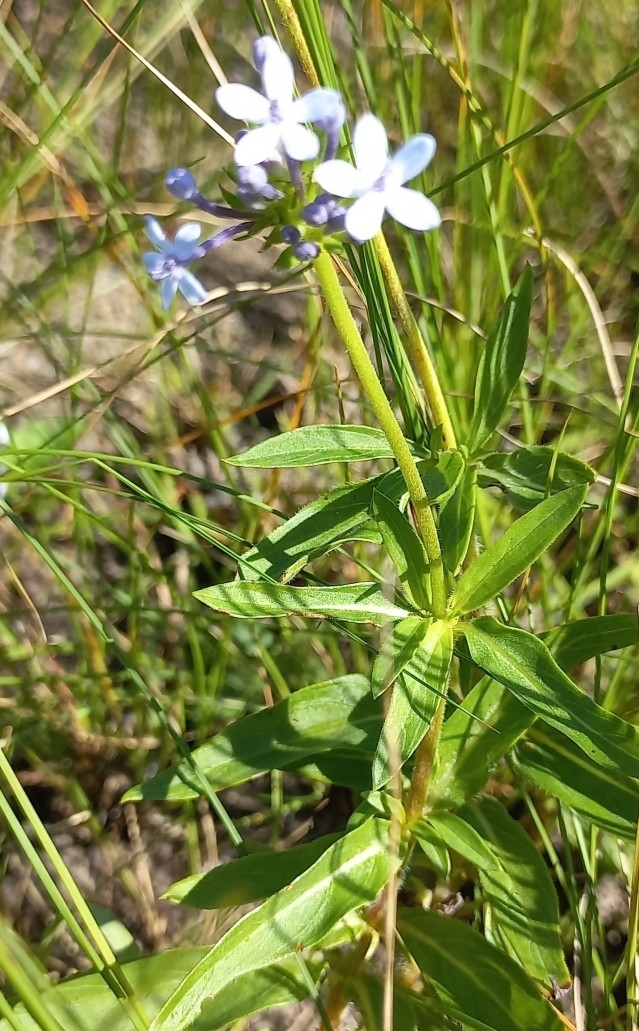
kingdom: Plantae
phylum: Tracheophyta
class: Magnoliopsida
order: Gentianales
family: Rubiaceae
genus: Pentanisia
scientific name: Pentanisia angustifolia
